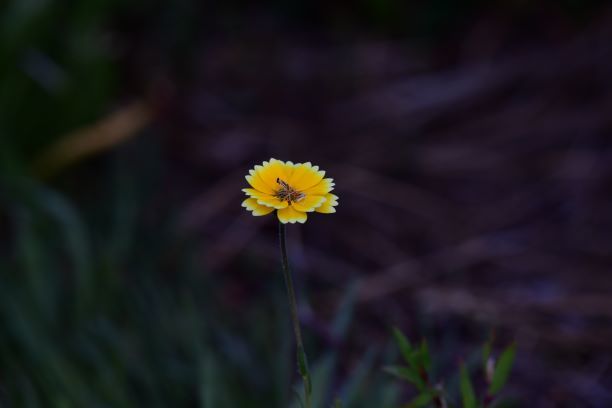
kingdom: Plantae
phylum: Tracheophyta
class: Magnoliopsida
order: Asterales
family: Asteraceae
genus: Layia
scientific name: Layia platyglossa
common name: Tidy-tips
